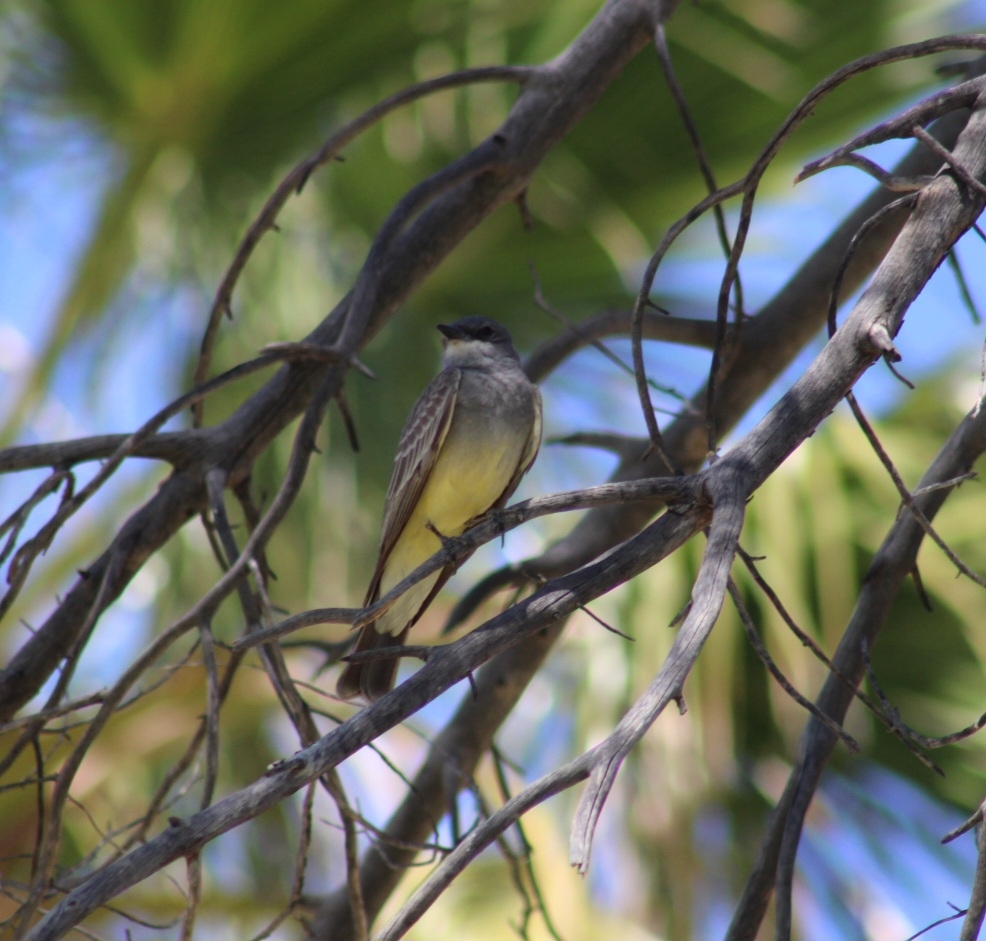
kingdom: Animalia
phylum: Chordata
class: Aves
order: Passeriformes
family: Tyrannidae
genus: Tyrannus
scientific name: Tyrannus vociferans
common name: Cassin's kingbird
